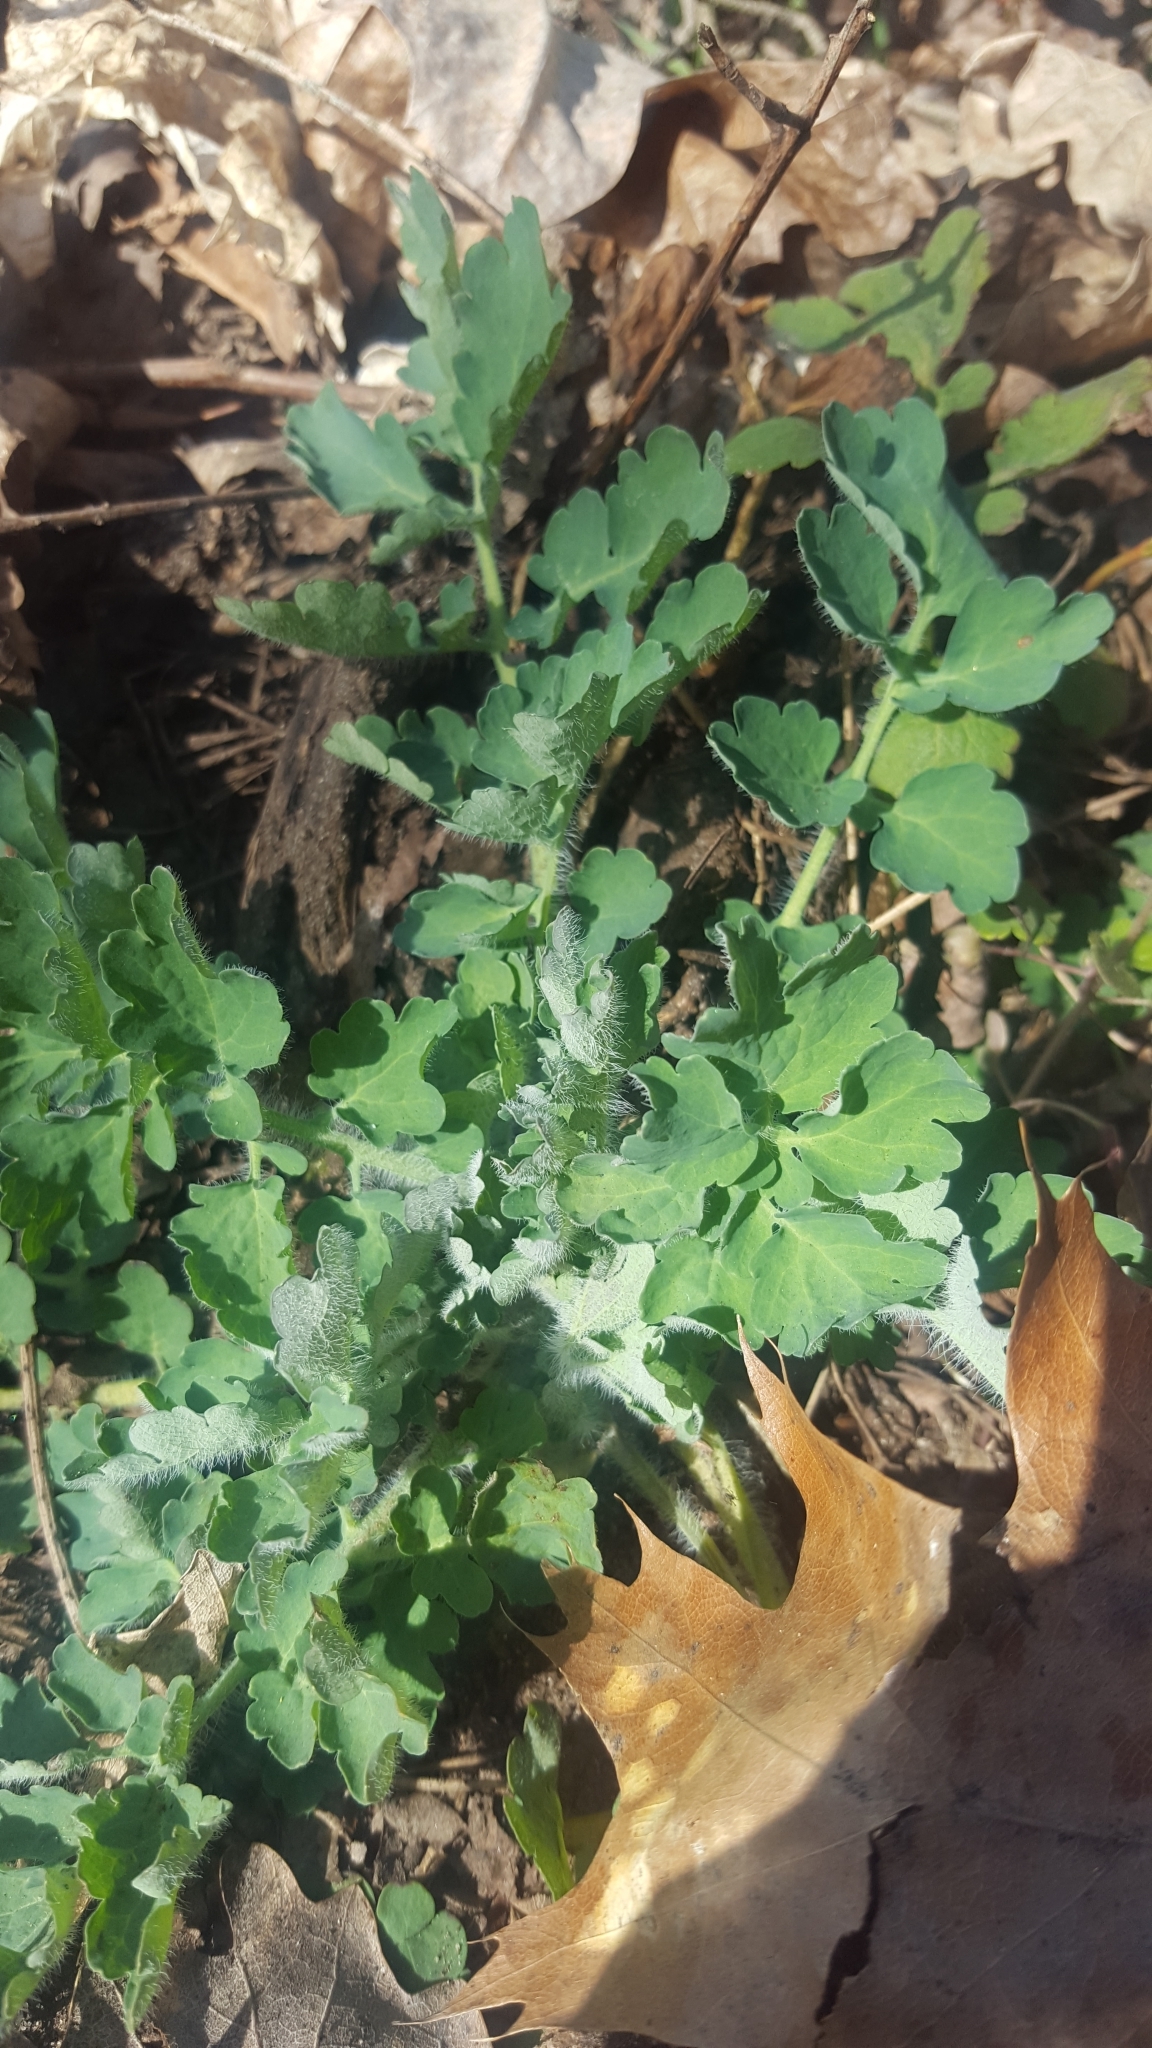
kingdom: Plantae
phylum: Tracheophyta
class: Magnoliopsida
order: Ranunculales
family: Papaveraceae
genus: Chelidonium
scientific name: Chelidonium majus
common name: Greater celandine
